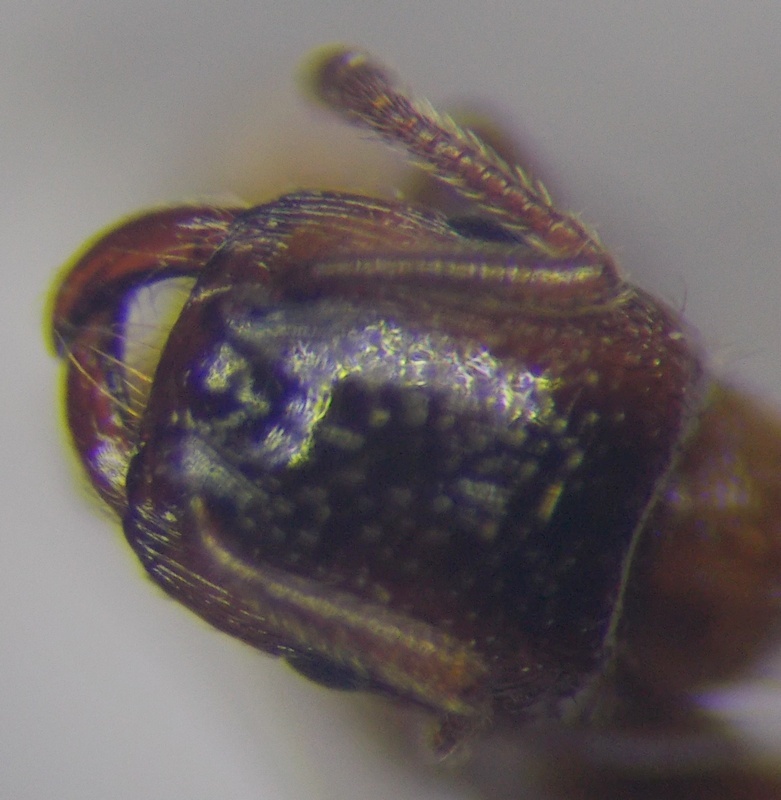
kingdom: Animalia
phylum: Arthropoda
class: Insecta
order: Hymenoptera
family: Formicidae
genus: Strongylognathus
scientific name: Strongylognathus rehbinderi
